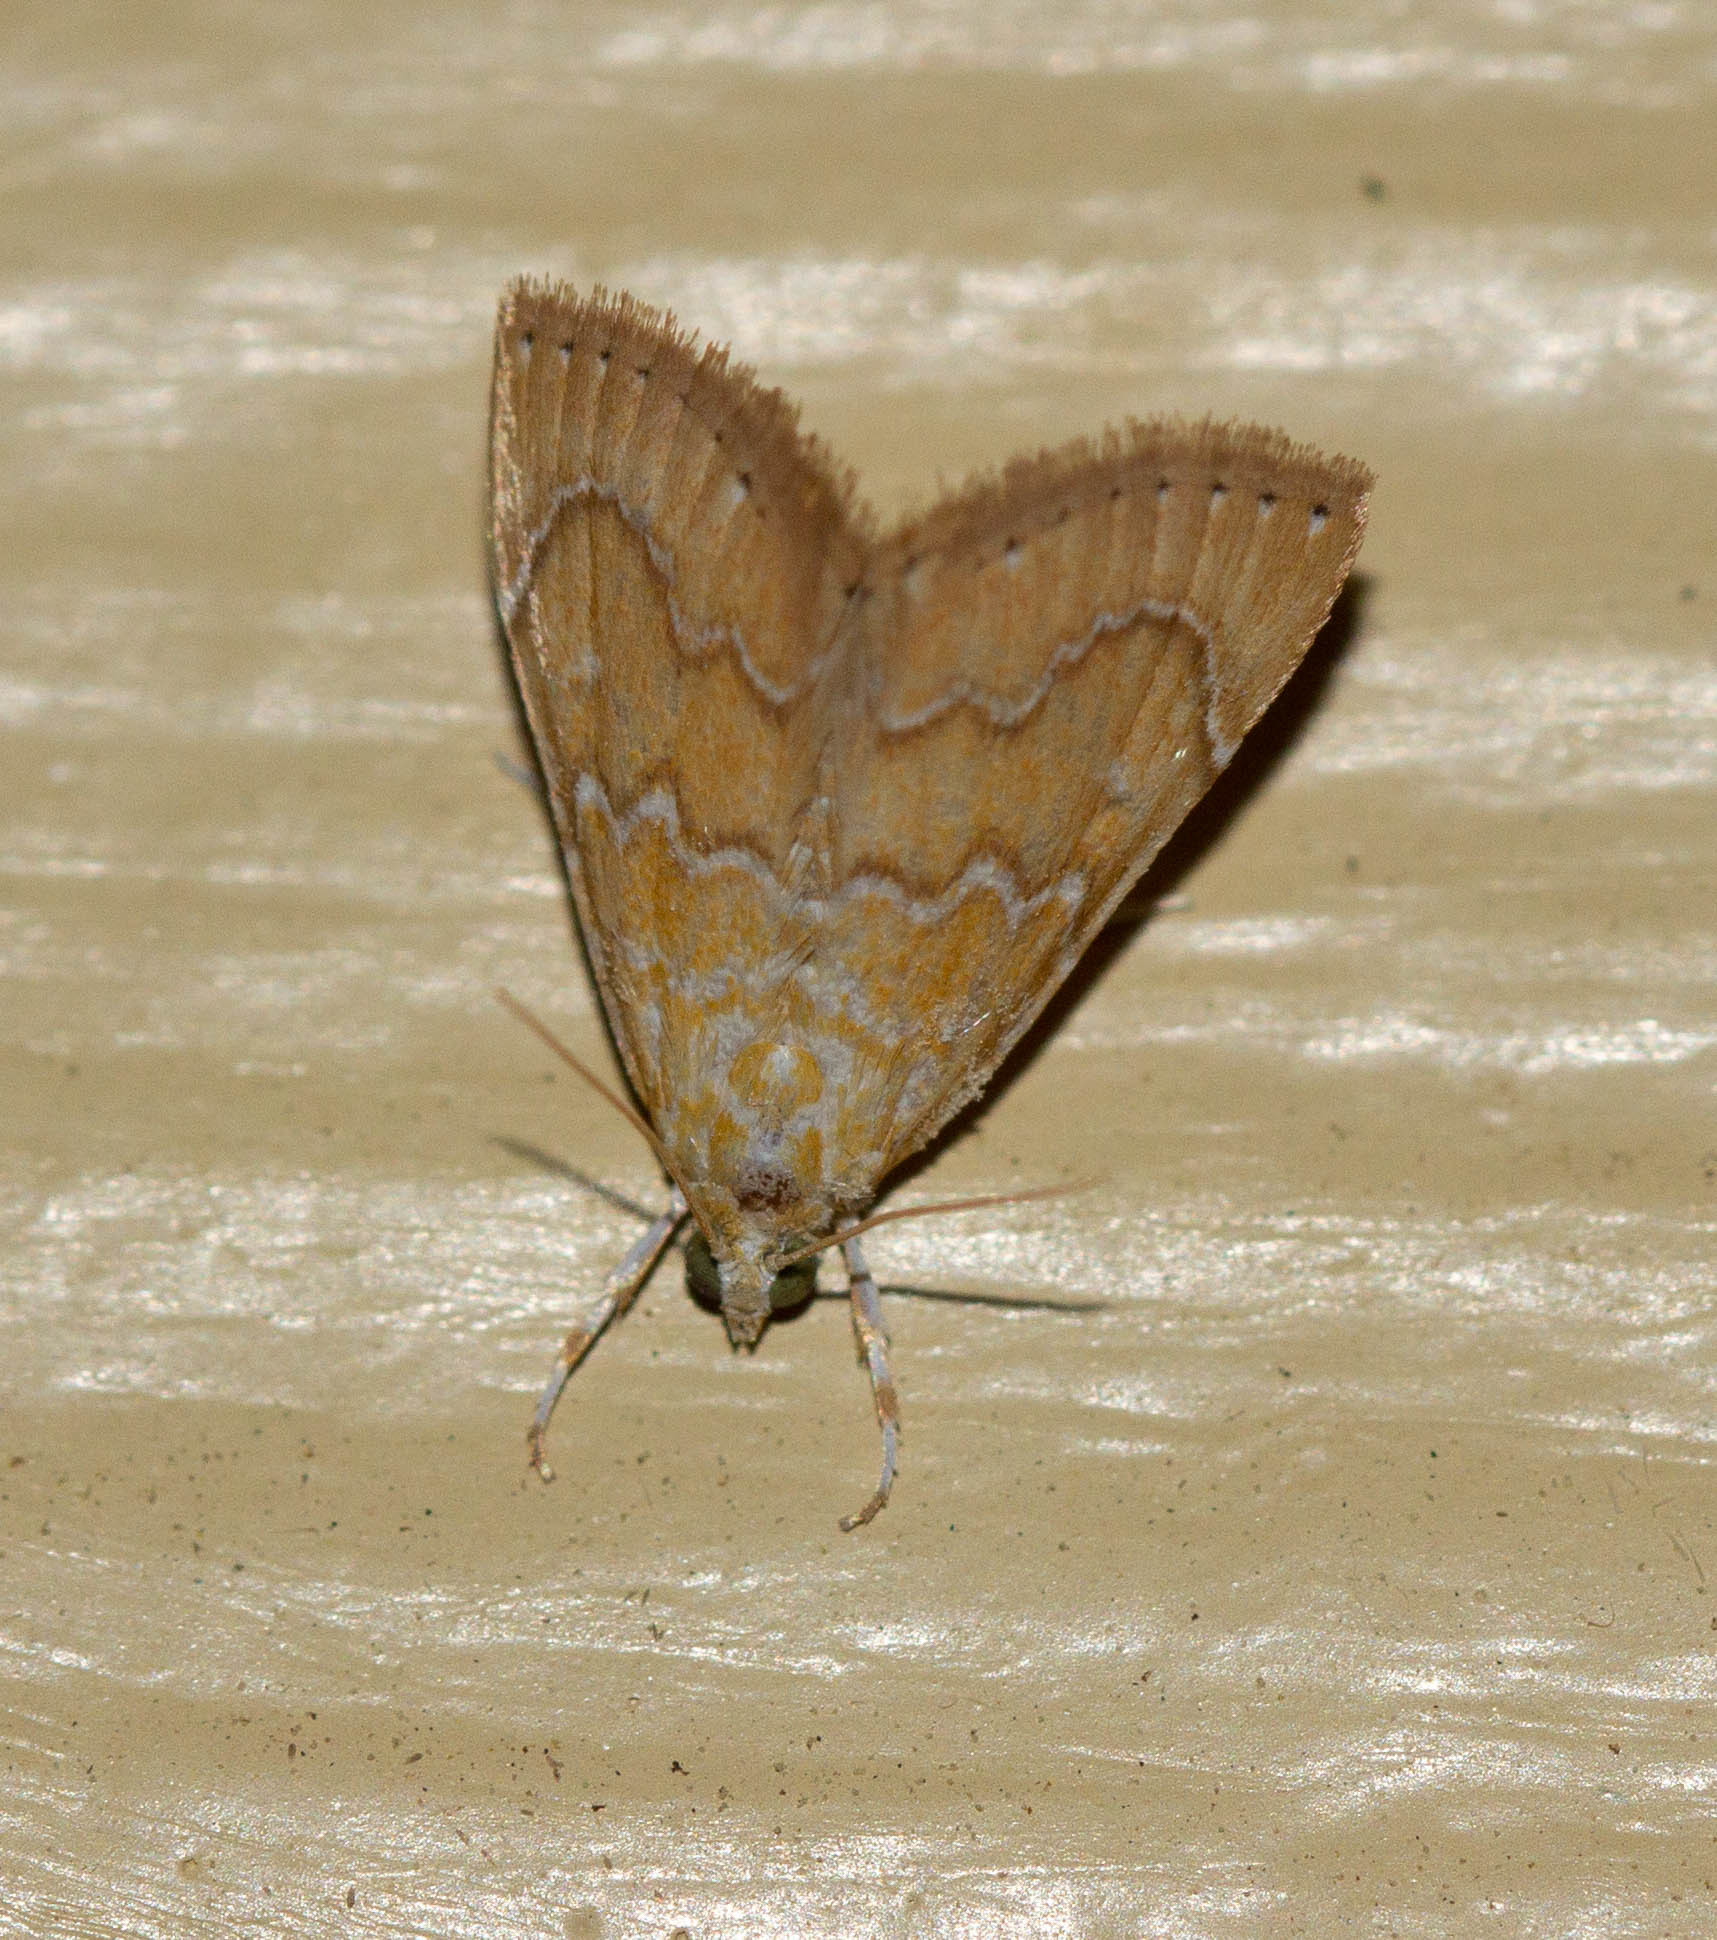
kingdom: Animalia
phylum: Arthropoda
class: Insecta
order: Lepidoptera
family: Crambidae
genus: Glaphyria
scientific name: Glaphyria sesquistrialis
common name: White-roped glaphyria
